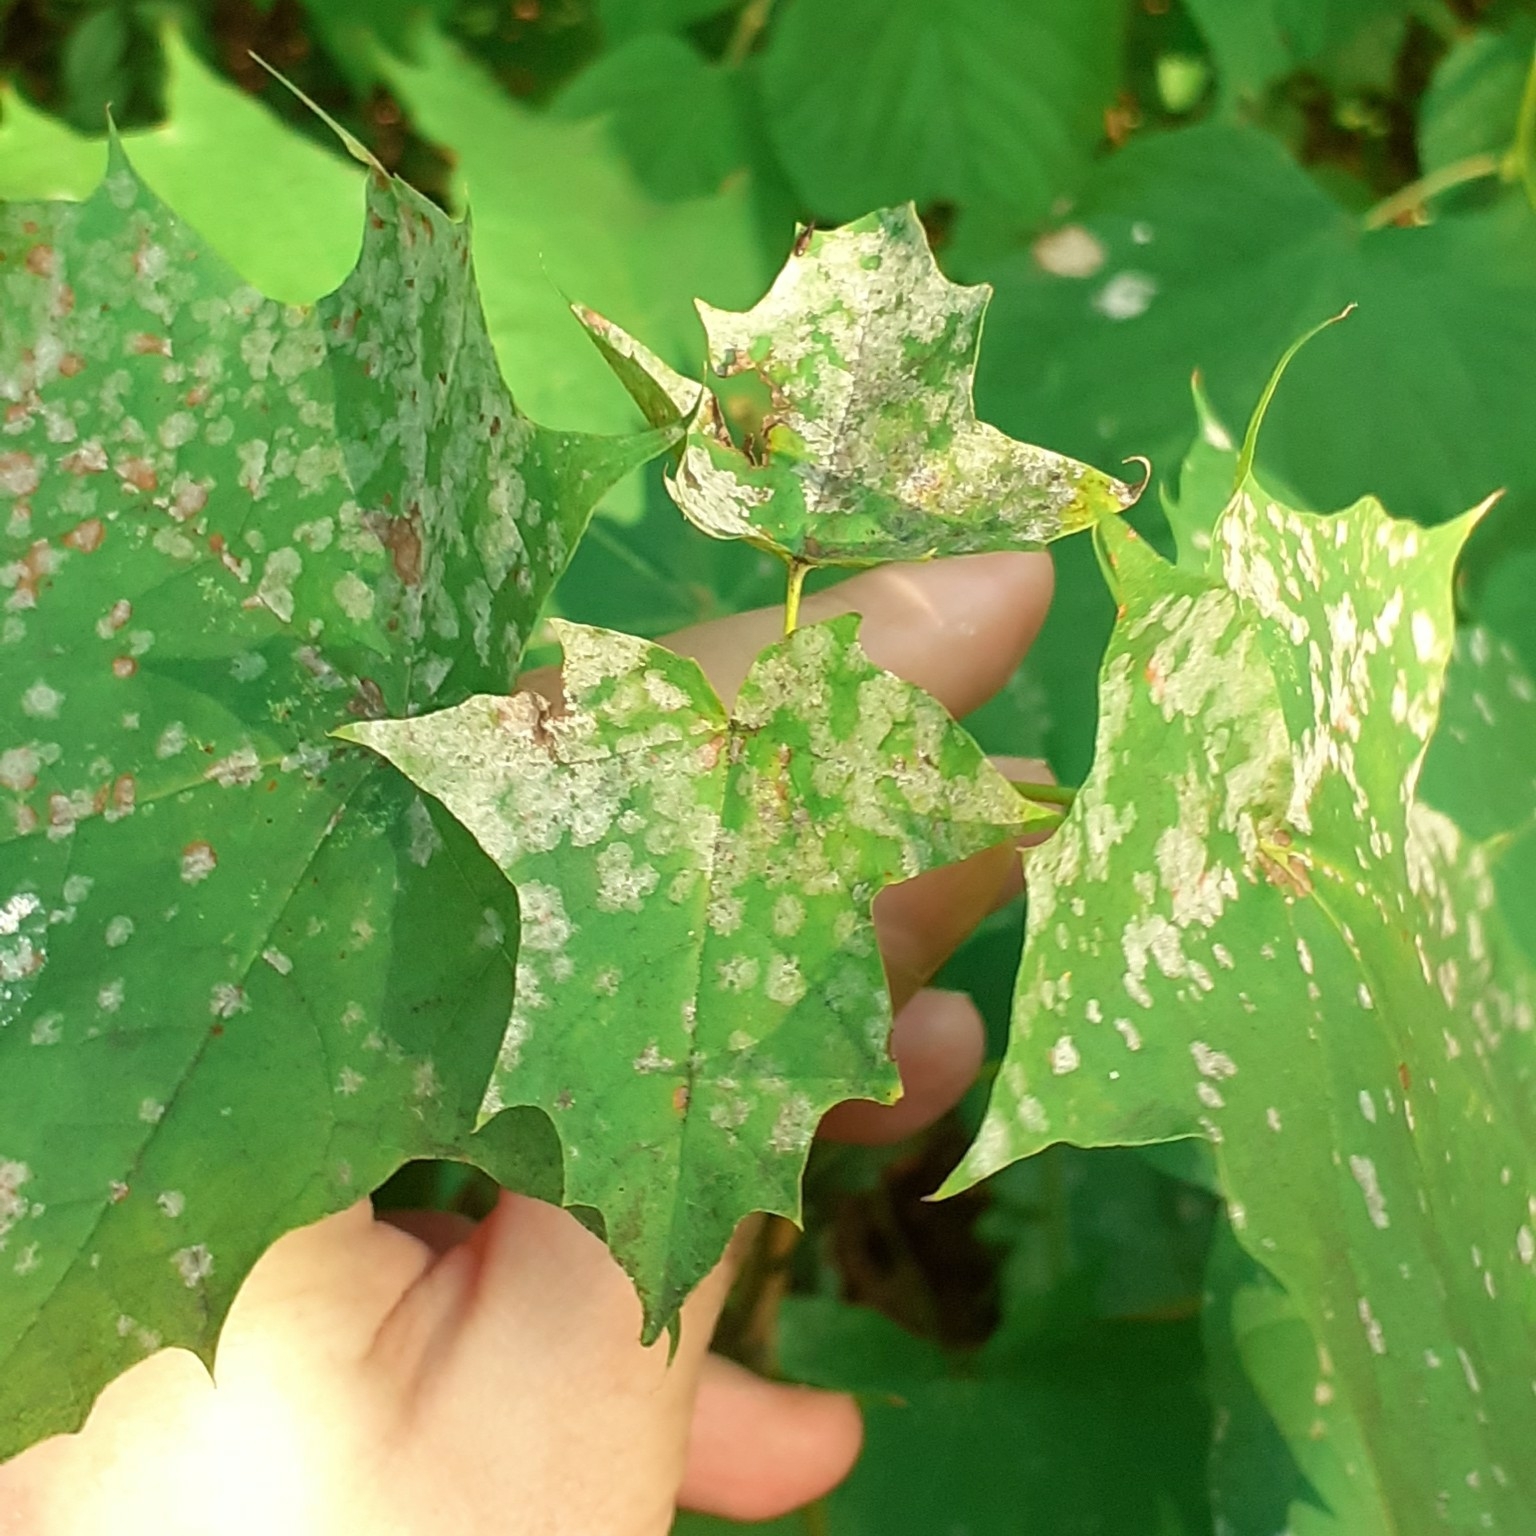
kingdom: Fungi
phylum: Ascomycota
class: Leotiomycetes
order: Helotiales
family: Erysiphaceae
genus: Sawadaea
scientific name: Sawadaea tulasnei
